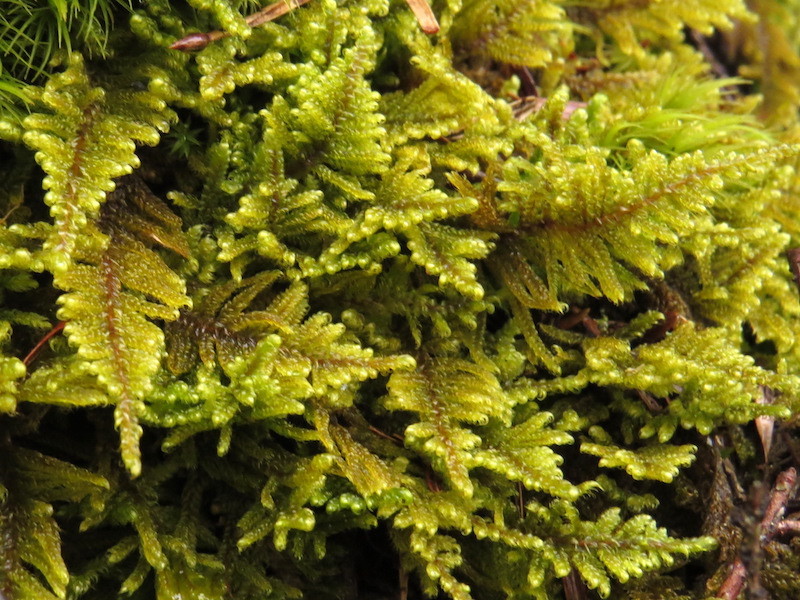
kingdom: Plantae
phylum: Bryophyta
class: Bryopsida
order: Hypnales
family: Callicladiaceae
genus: Callicladium
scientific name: Callicladium imponens
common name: Brocade moss
